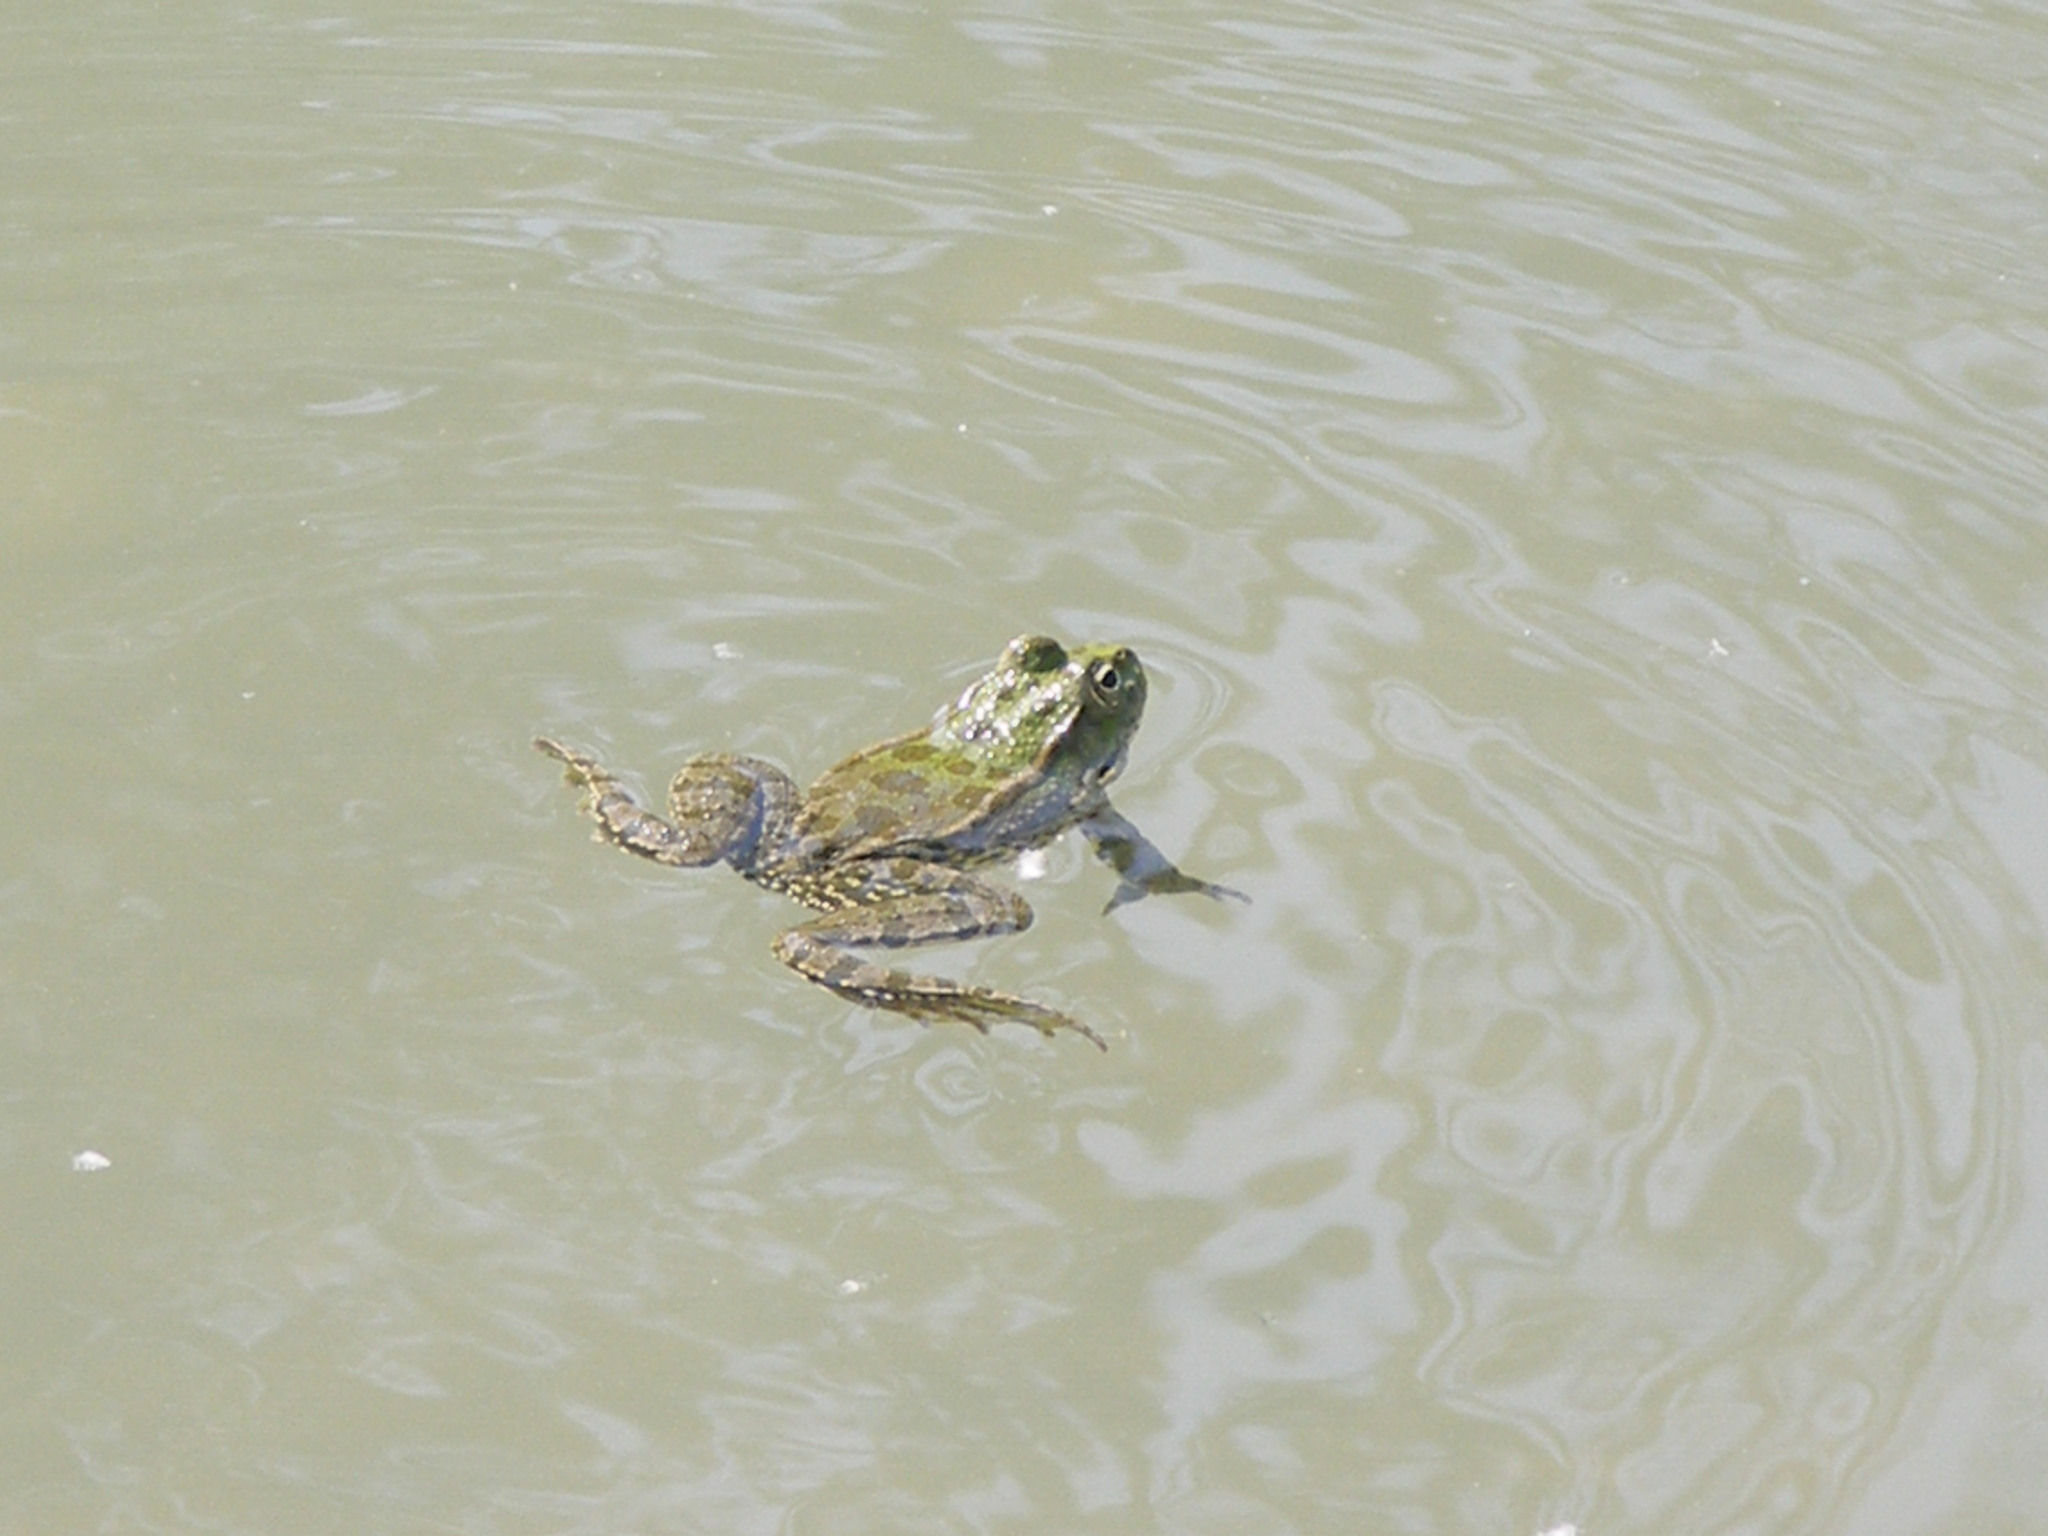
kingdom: Animalia
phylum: Chordata
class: Amphibia
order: Anura
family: Ranidae
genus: Pelophylax
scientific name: Pelophylax ridibundus
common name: Marsh frog
